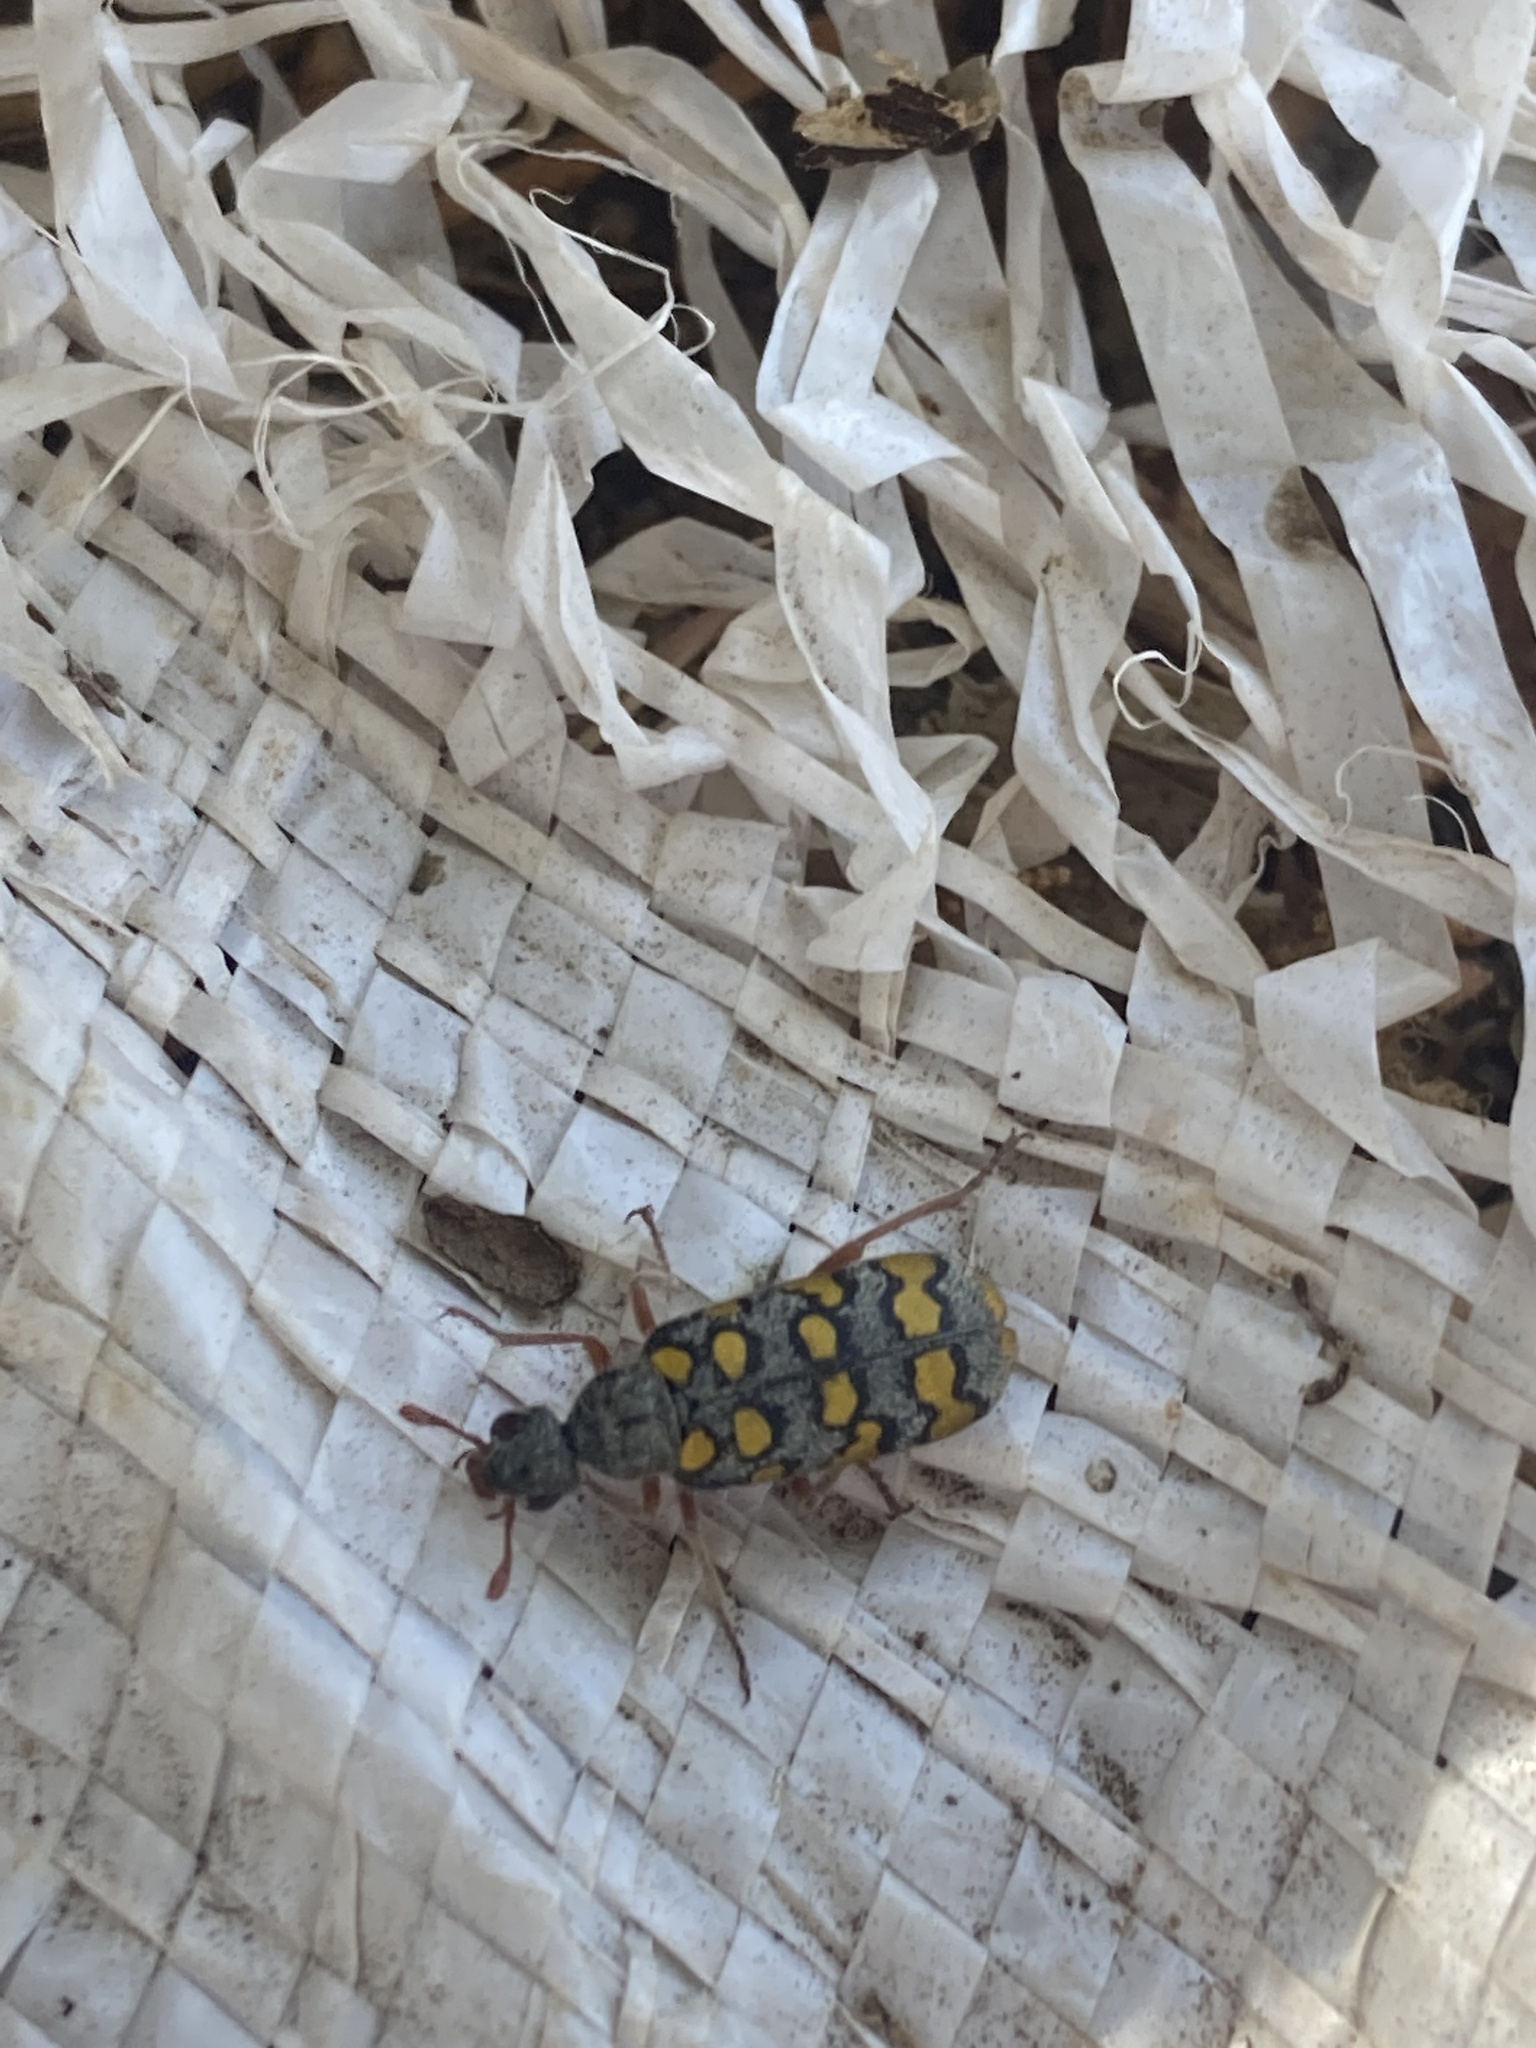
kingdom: Animalia
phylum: Arthropoda
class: Insecta
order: Coleoptera
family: Meloidae
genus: Mylabris
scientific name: Mylabris argentata
